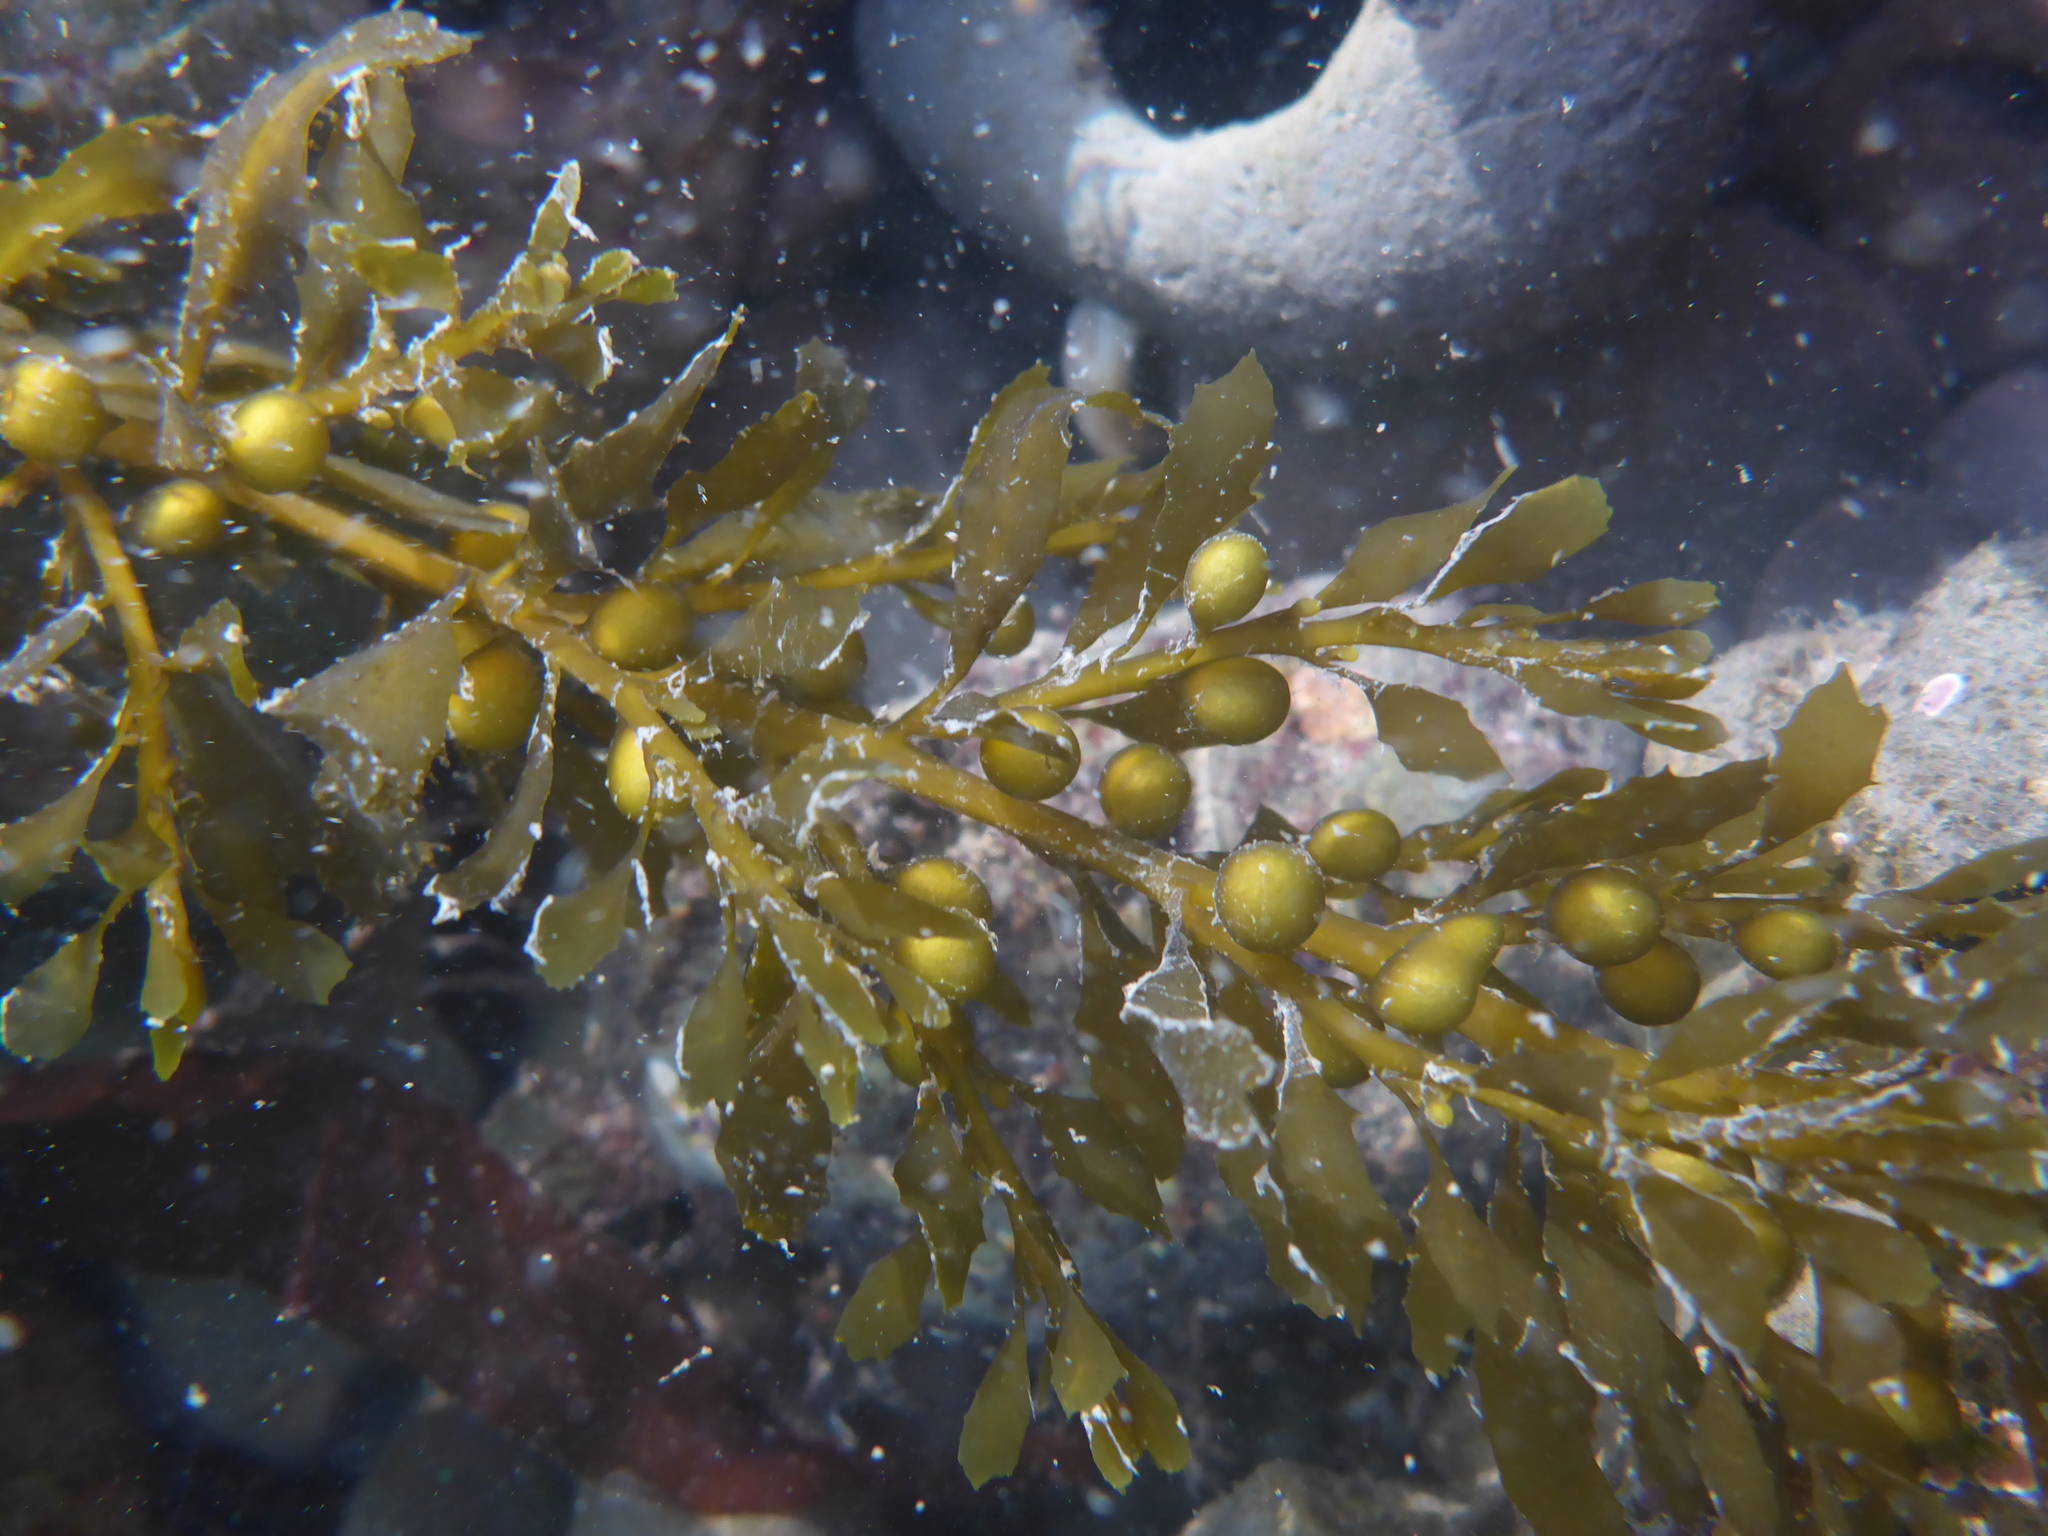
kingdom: Chromista
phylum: Ochrophyta
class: Phaeophyceae
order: Fucales
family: Sargassaceae
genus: Sargassum
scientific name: Sargassum muticum
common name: Japweed
